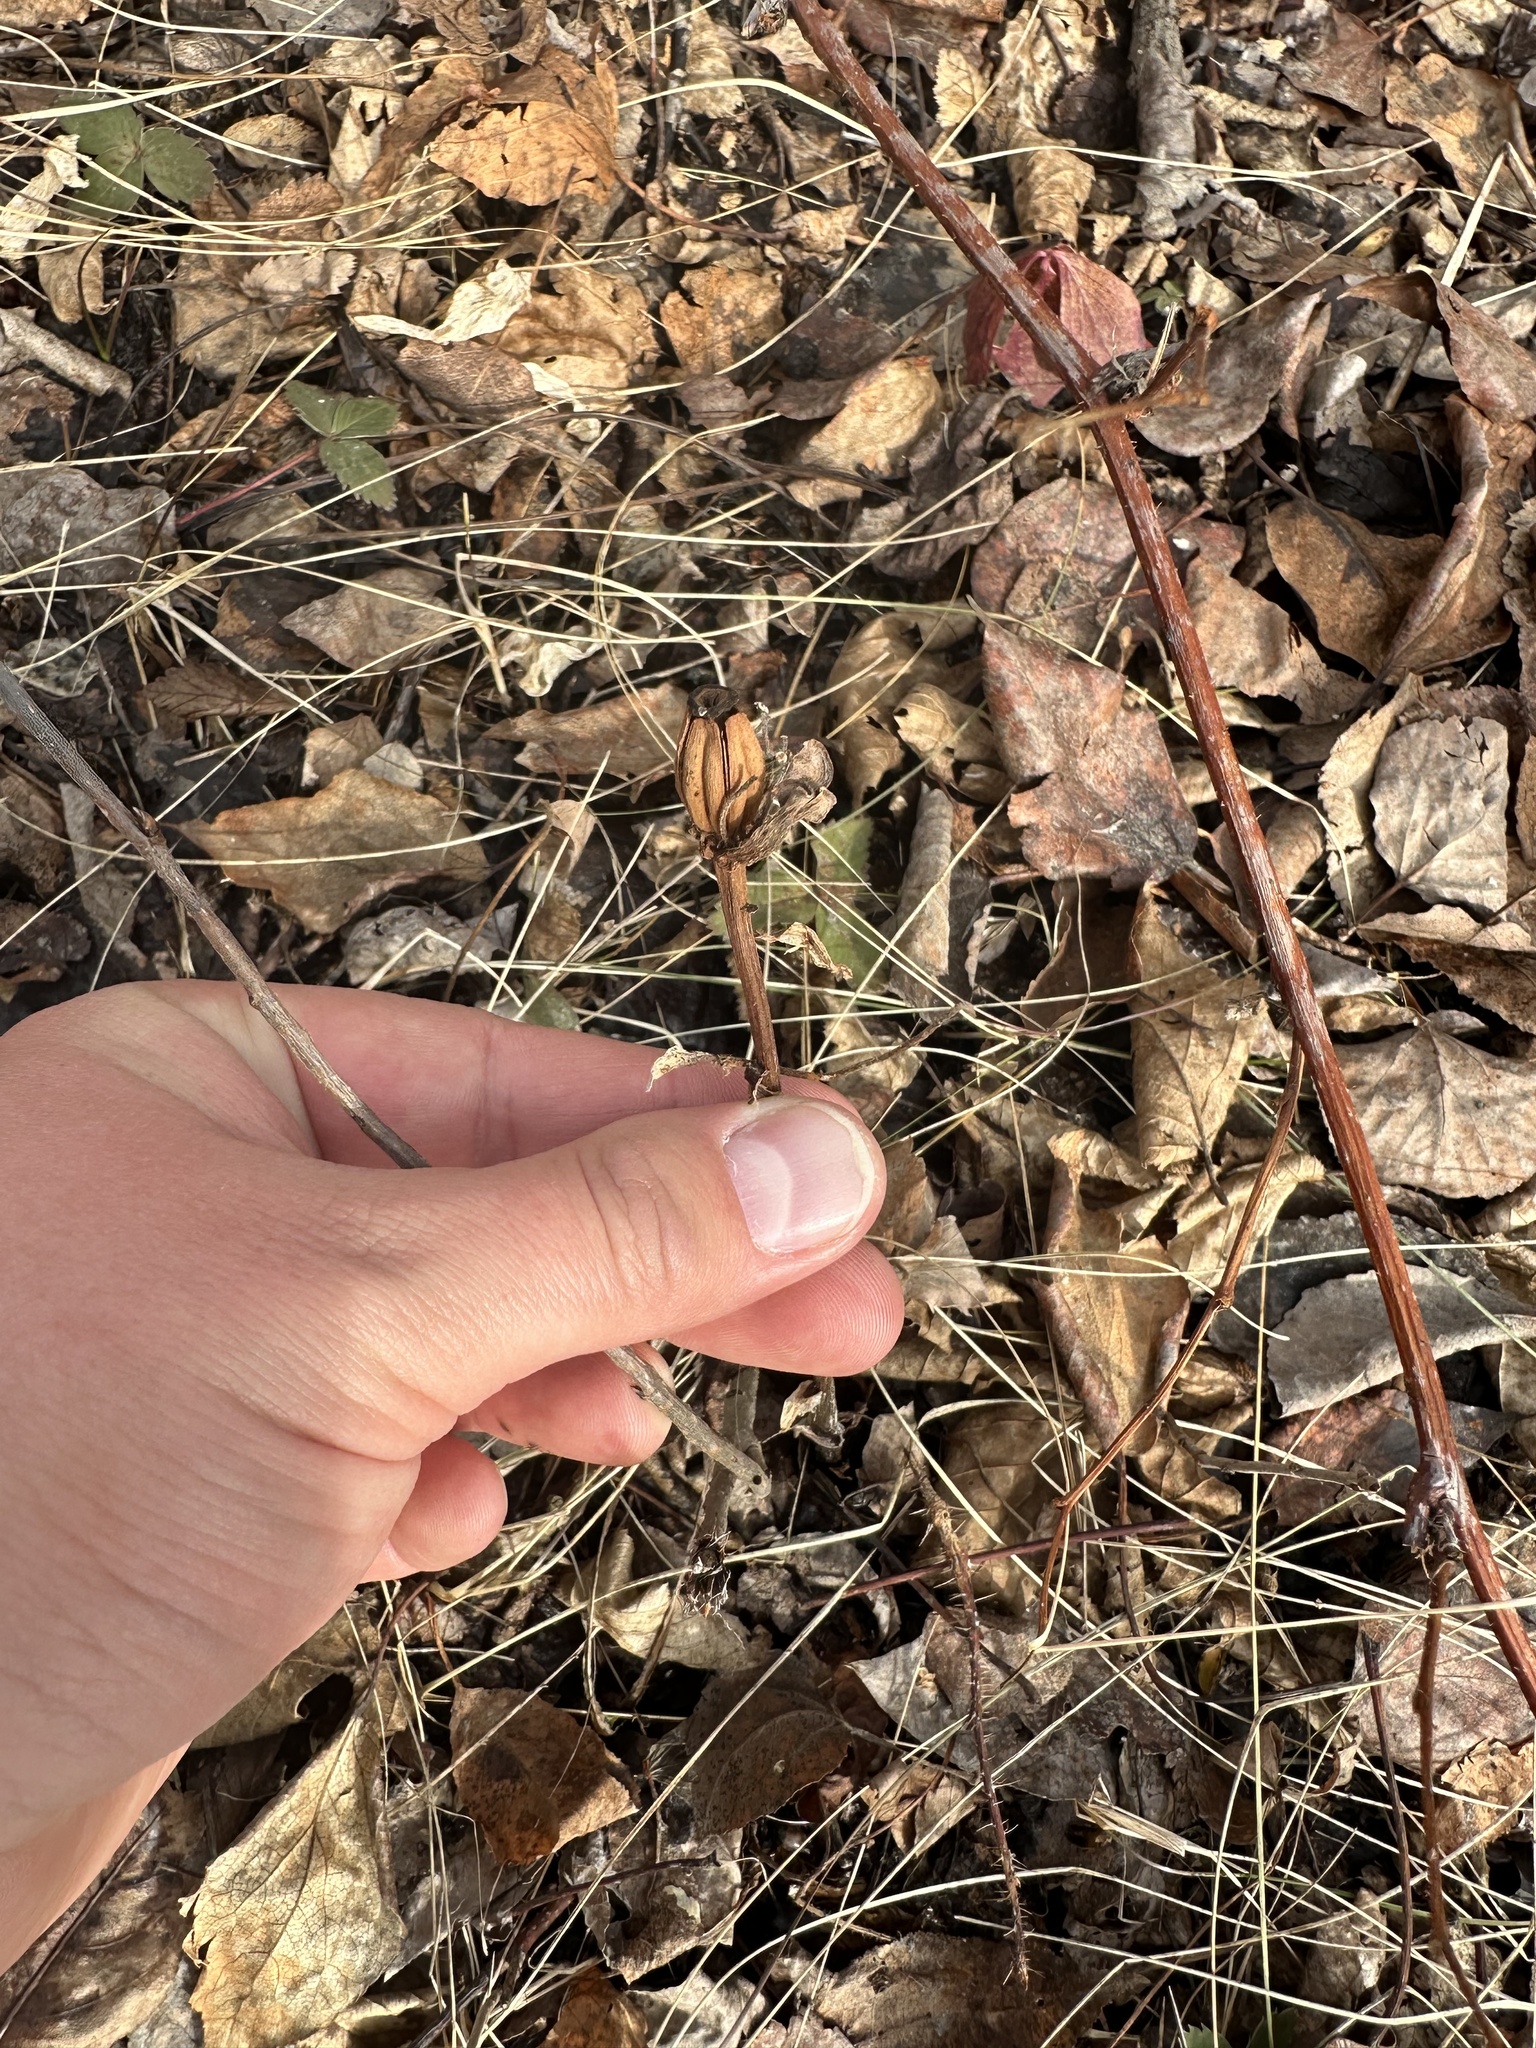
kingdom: Plantae
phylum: Tracheophyta
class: Magnoliopsida
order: Ericales
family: Ericaceae
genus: Monotropa
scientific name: Monotropa uniflora
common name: Convulsion root
